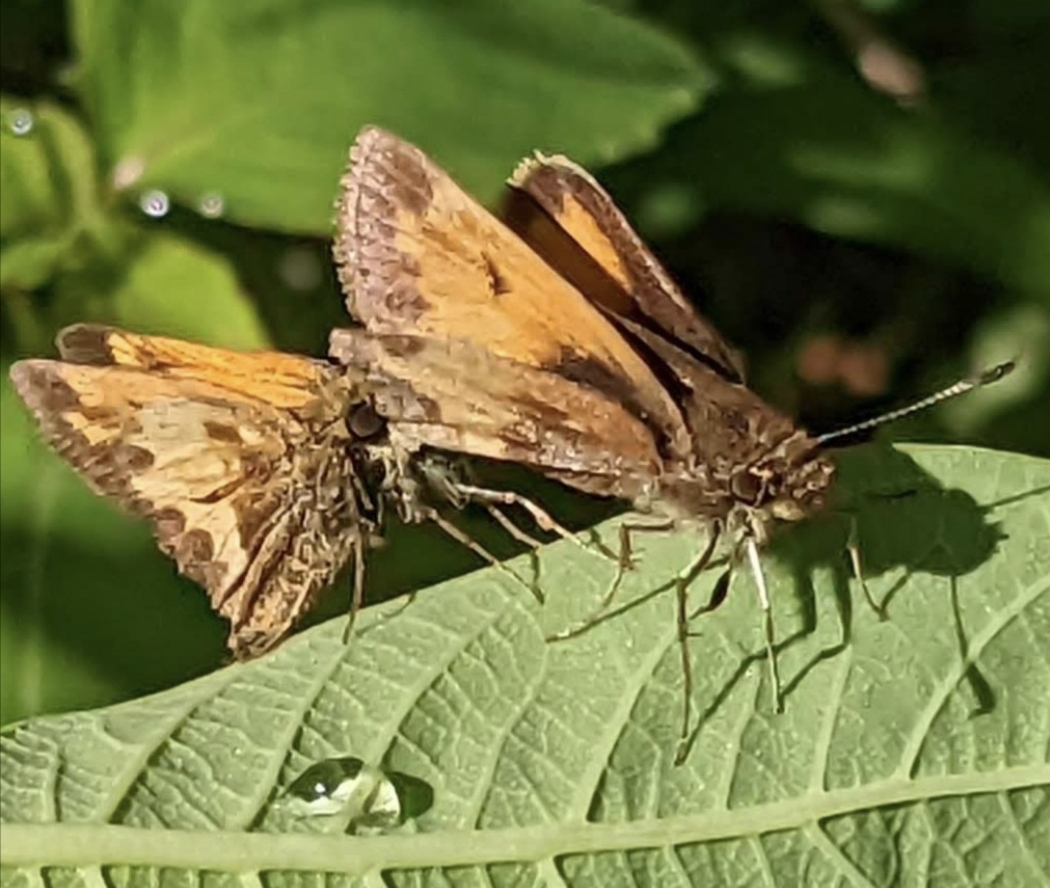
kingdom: Animalia
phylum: Arthropoda
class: Insecta
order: Lepidoptera
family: Hesperiidae
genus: Lon
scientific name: Lon hobomok
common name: Hobomok skipper
